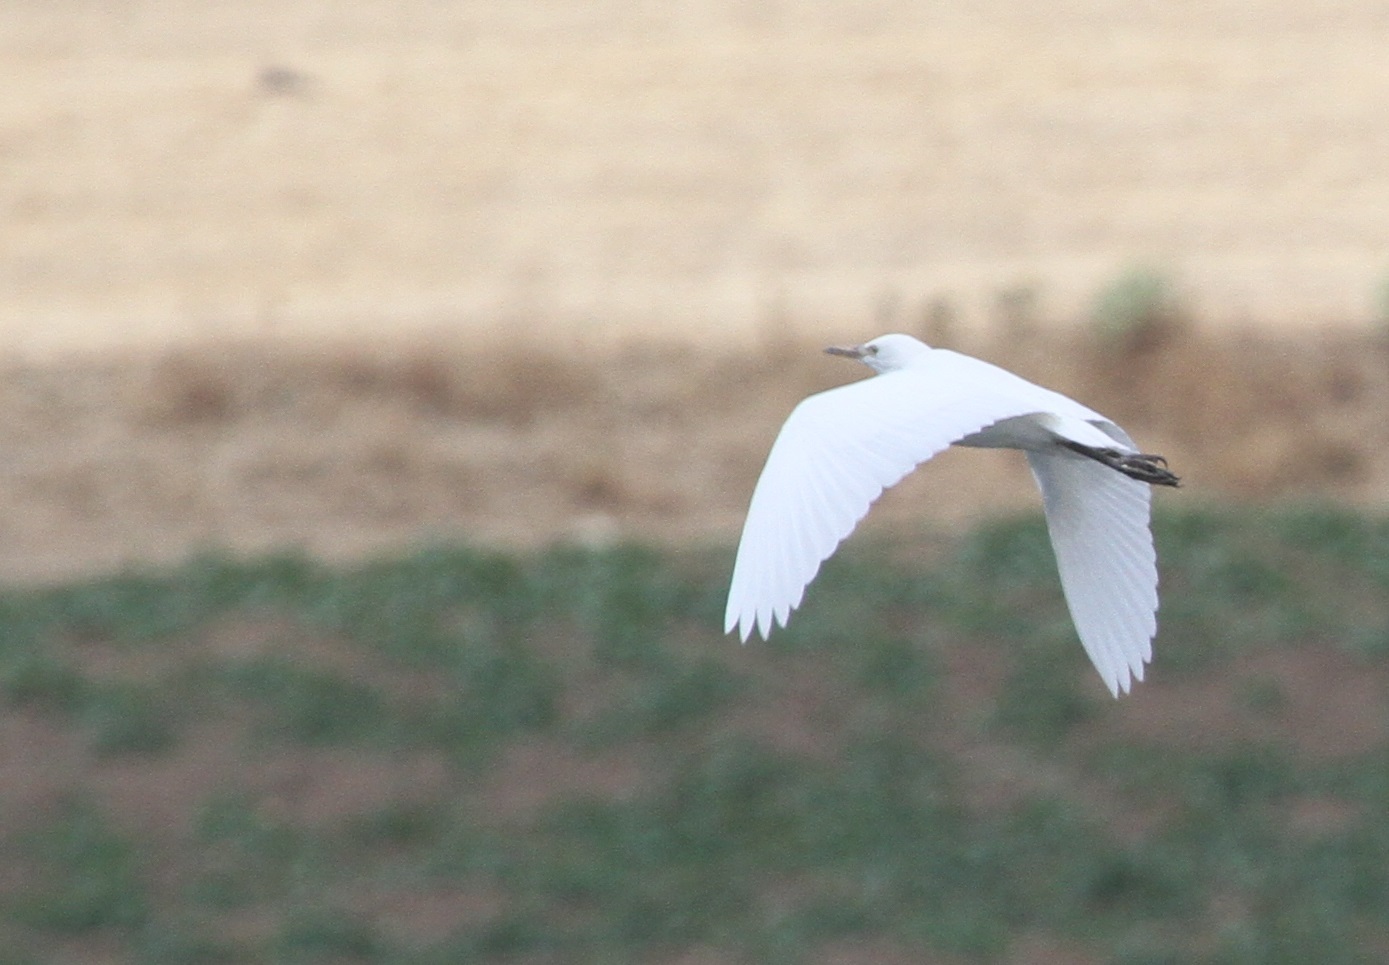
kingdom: Animalia
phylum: Chordata
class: Aves
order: Pelecaniformes
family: Ardeidae
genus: Bubulcus
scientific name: Bubulcus ibis
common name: Cattle egret
